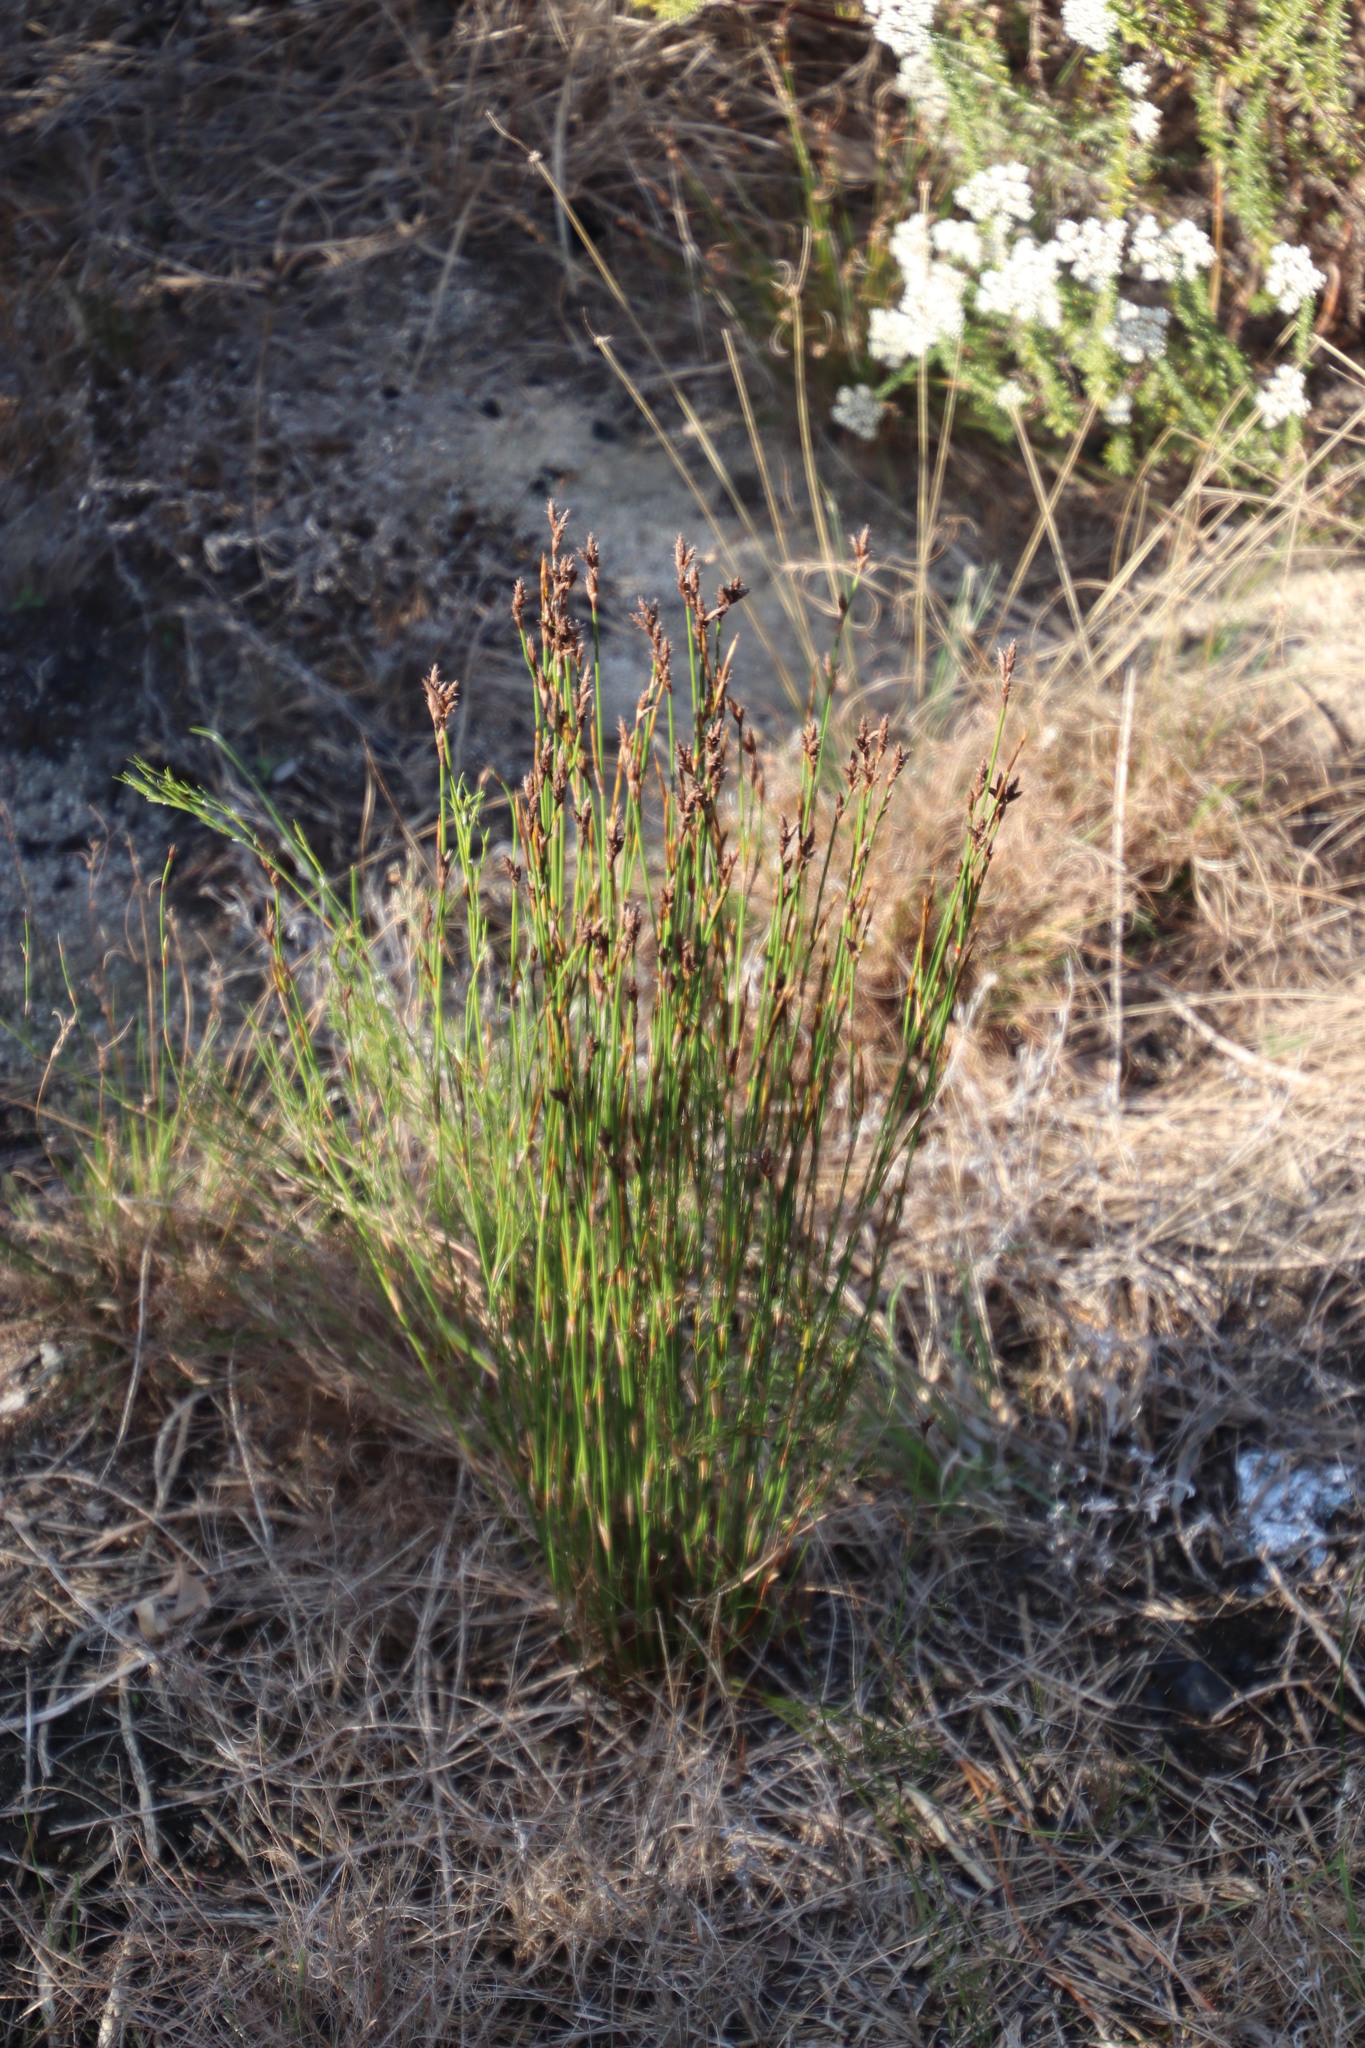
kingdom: Plantae
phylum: Tracheophyta
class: Liliopsida
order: Poales
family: Restionaceae
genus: Restio
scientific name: Restio capensis
